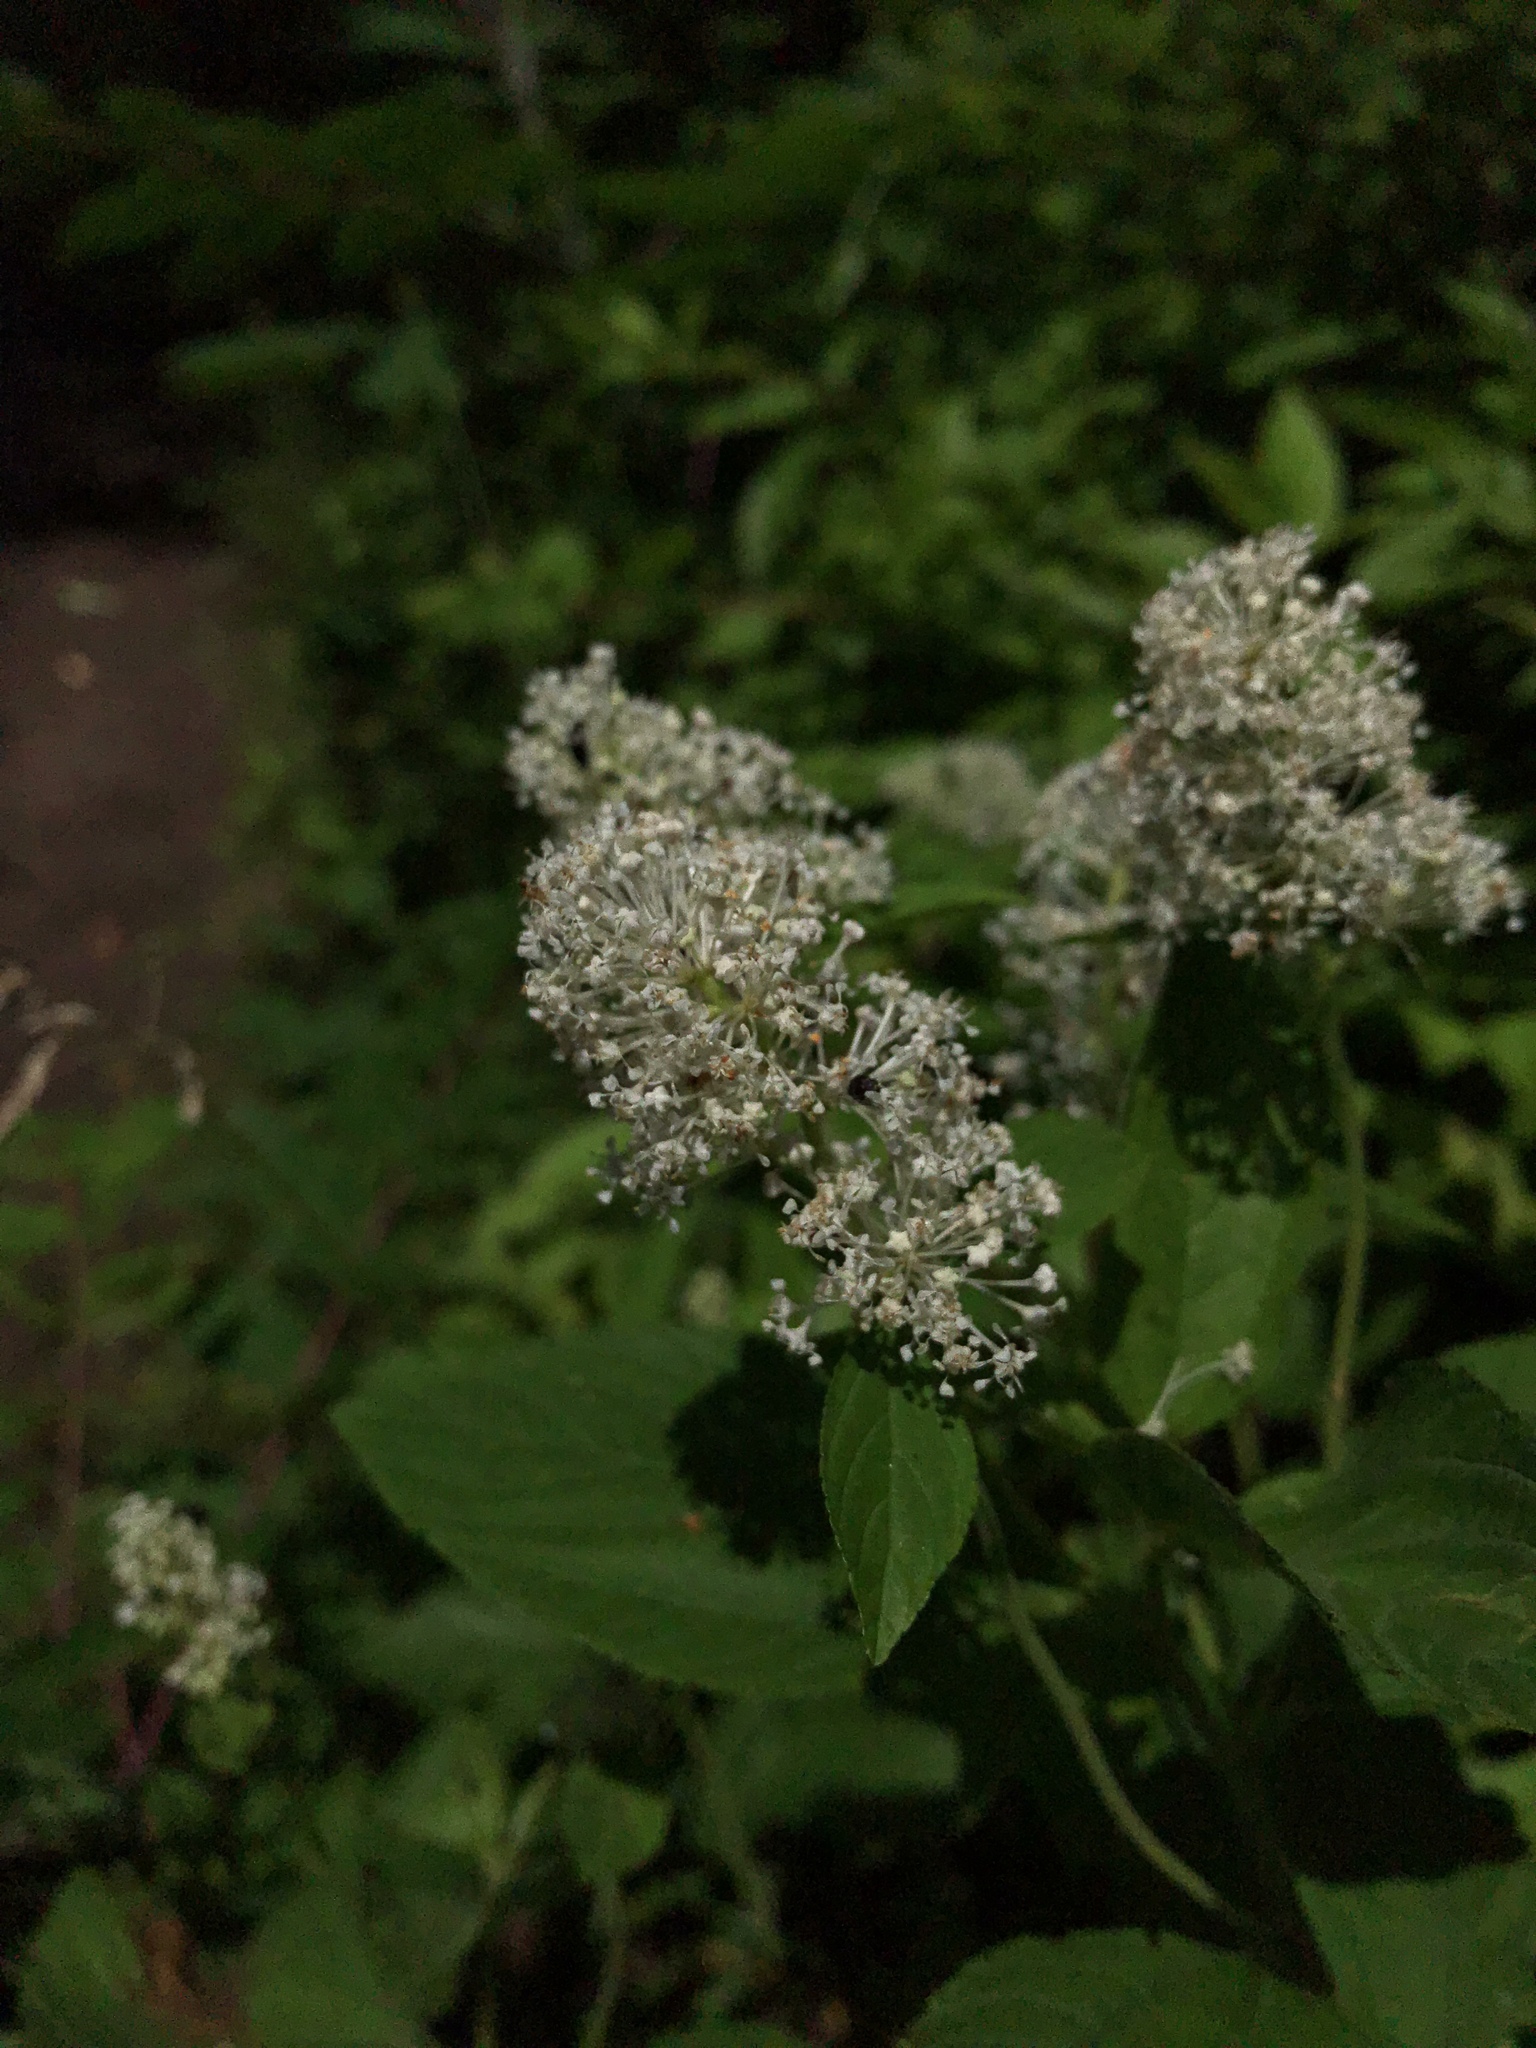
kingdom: Plantae
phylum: Tracheophyta
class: Magnoliopsida
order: Rosales
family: Rhamnaceae
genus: Ceanothus
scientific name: Ceanothus americanus
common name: Redroot
